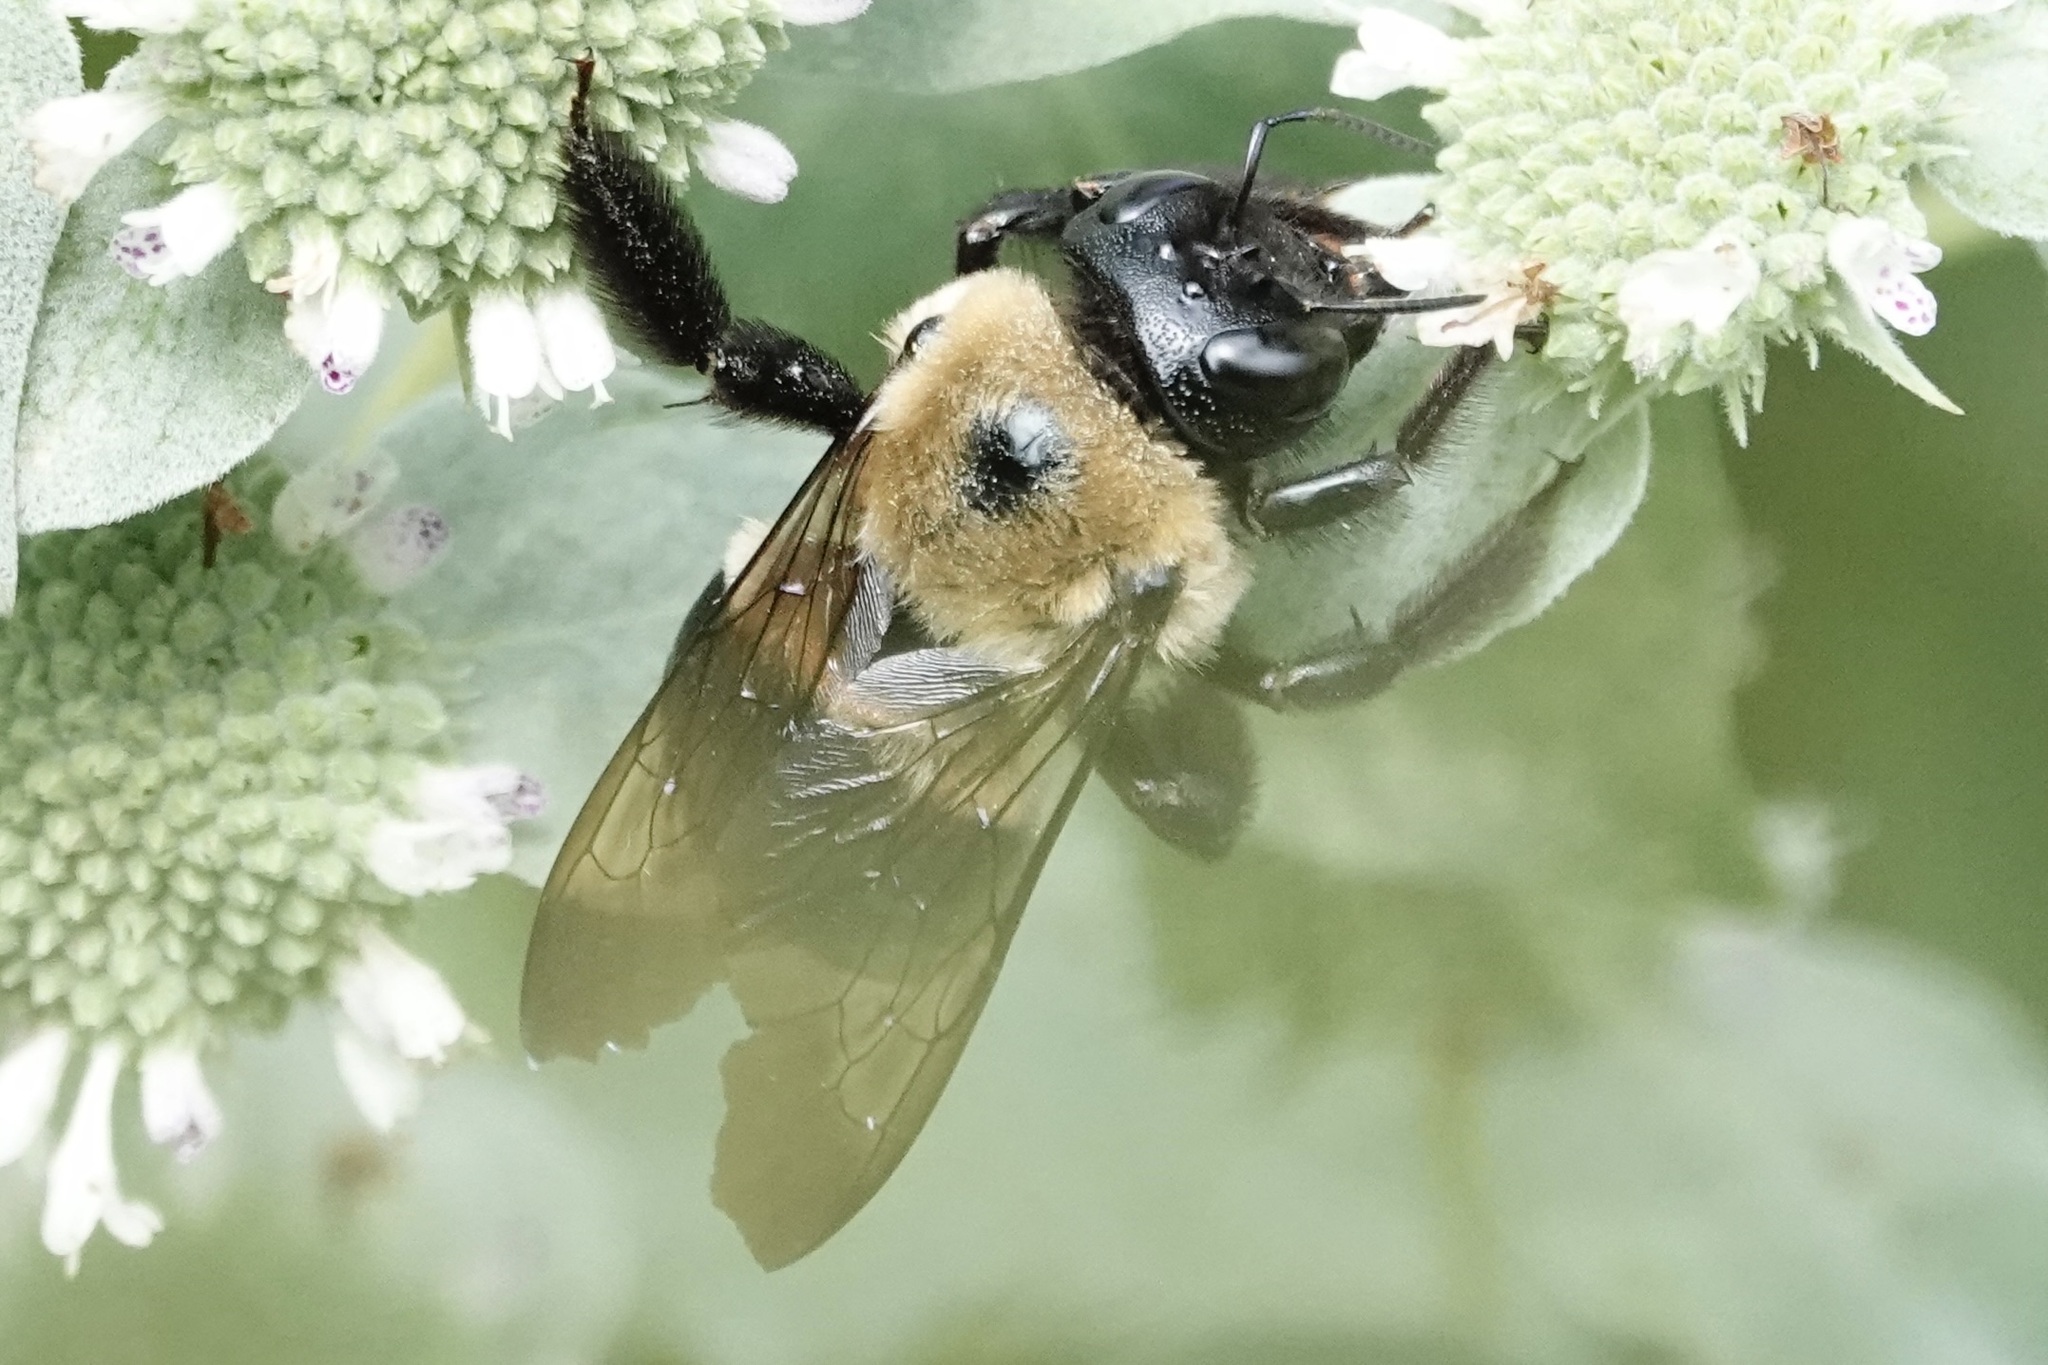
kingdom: Animalia
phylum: Arthropoda
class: Insecta
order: Hymenoptera
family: Apidae
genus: Xylocopa
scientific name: Xylocopa virginica
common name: Carpenter bee
